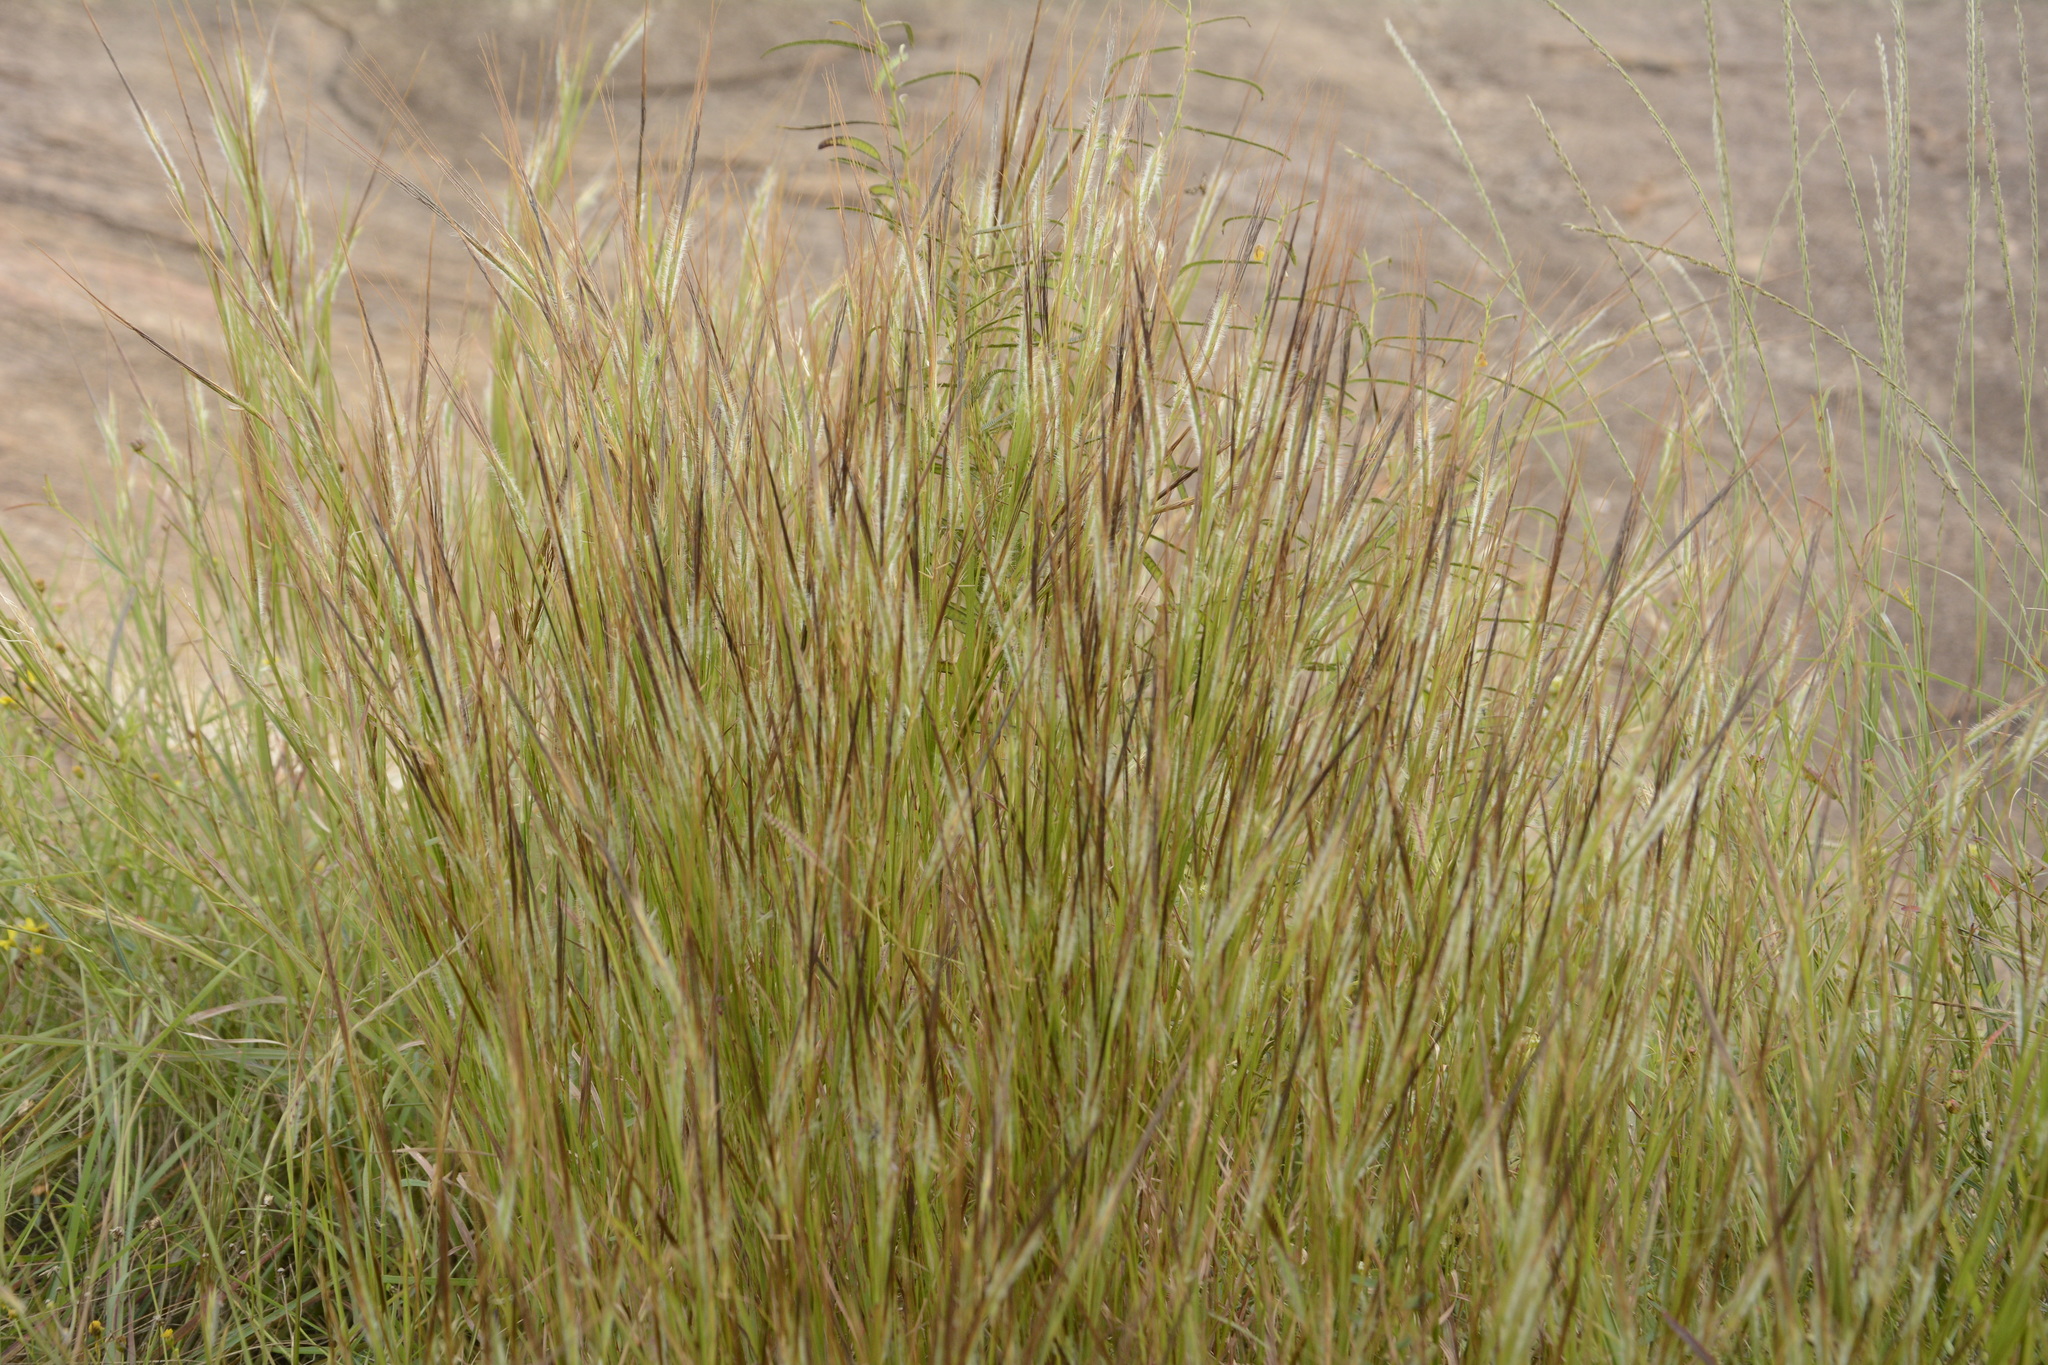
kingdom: Plantae
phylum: Tracheophyta
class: Liliopsida
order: Poales
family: Poaceae
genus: Heteropogon
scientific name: Heteropogon contortus
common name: Tanglehead
